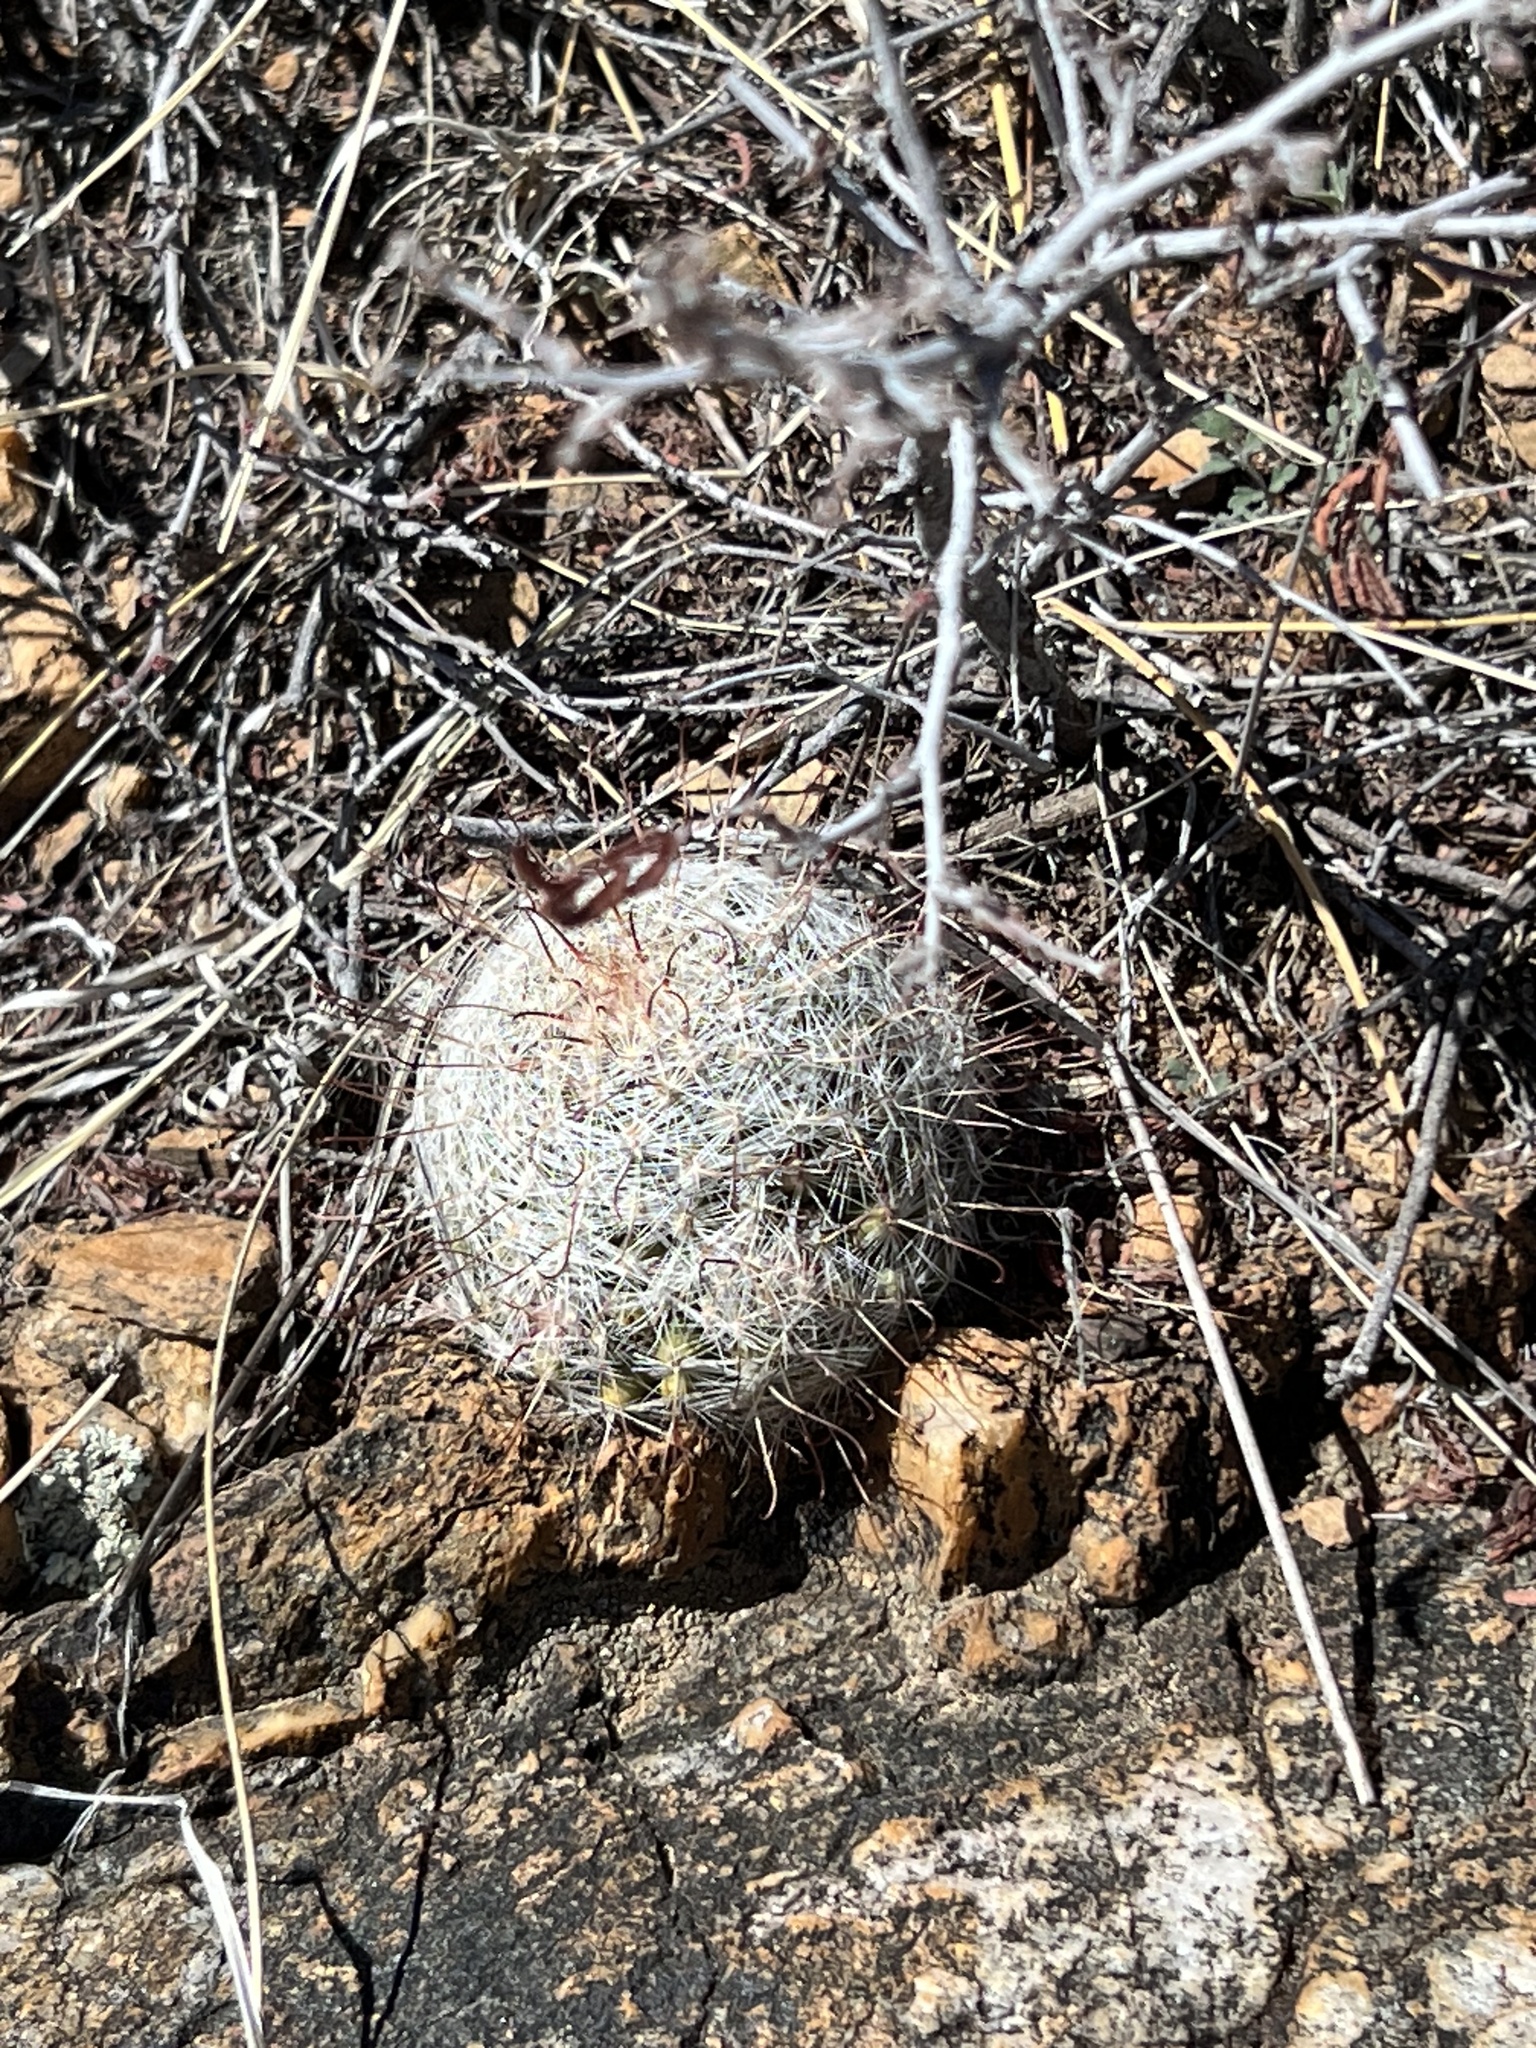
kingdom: Plantae
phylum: Tracheophyta
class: Magnoliopsida
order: Caryophyllales
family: Cactaceae
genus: Cochemiea
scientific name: Cochemiea grahamii
